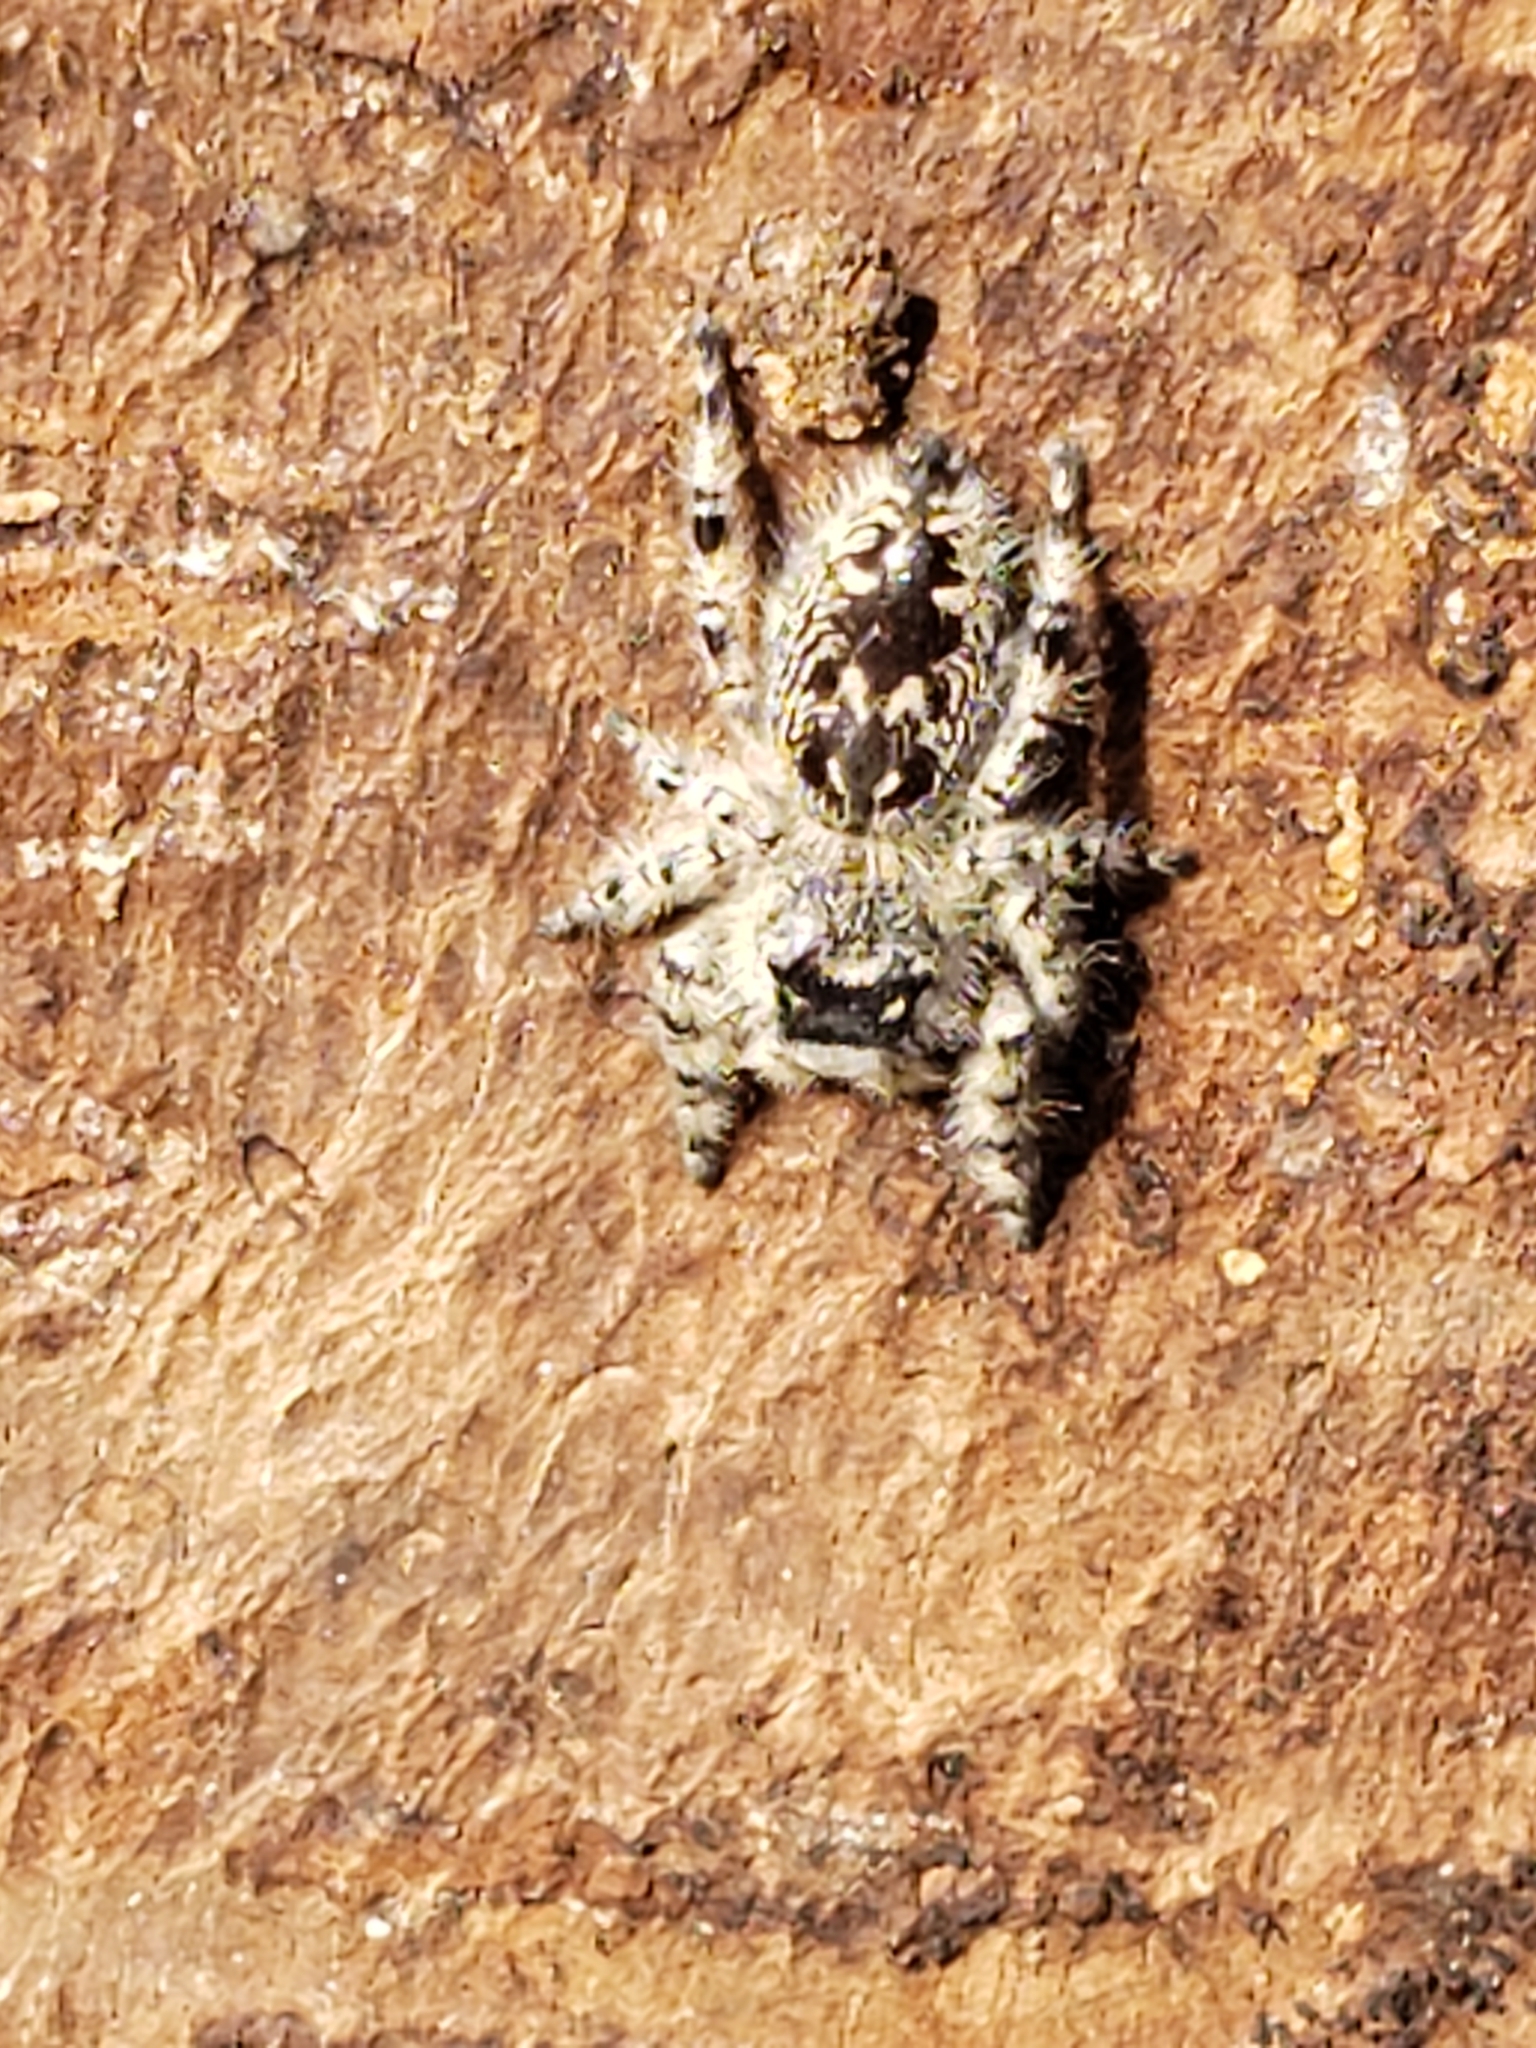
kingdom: Animalia
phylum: Arthropoda
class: Arachnida
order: Araneae
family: Salticidae
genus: Phidippus
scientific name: Phidippus otiosus
